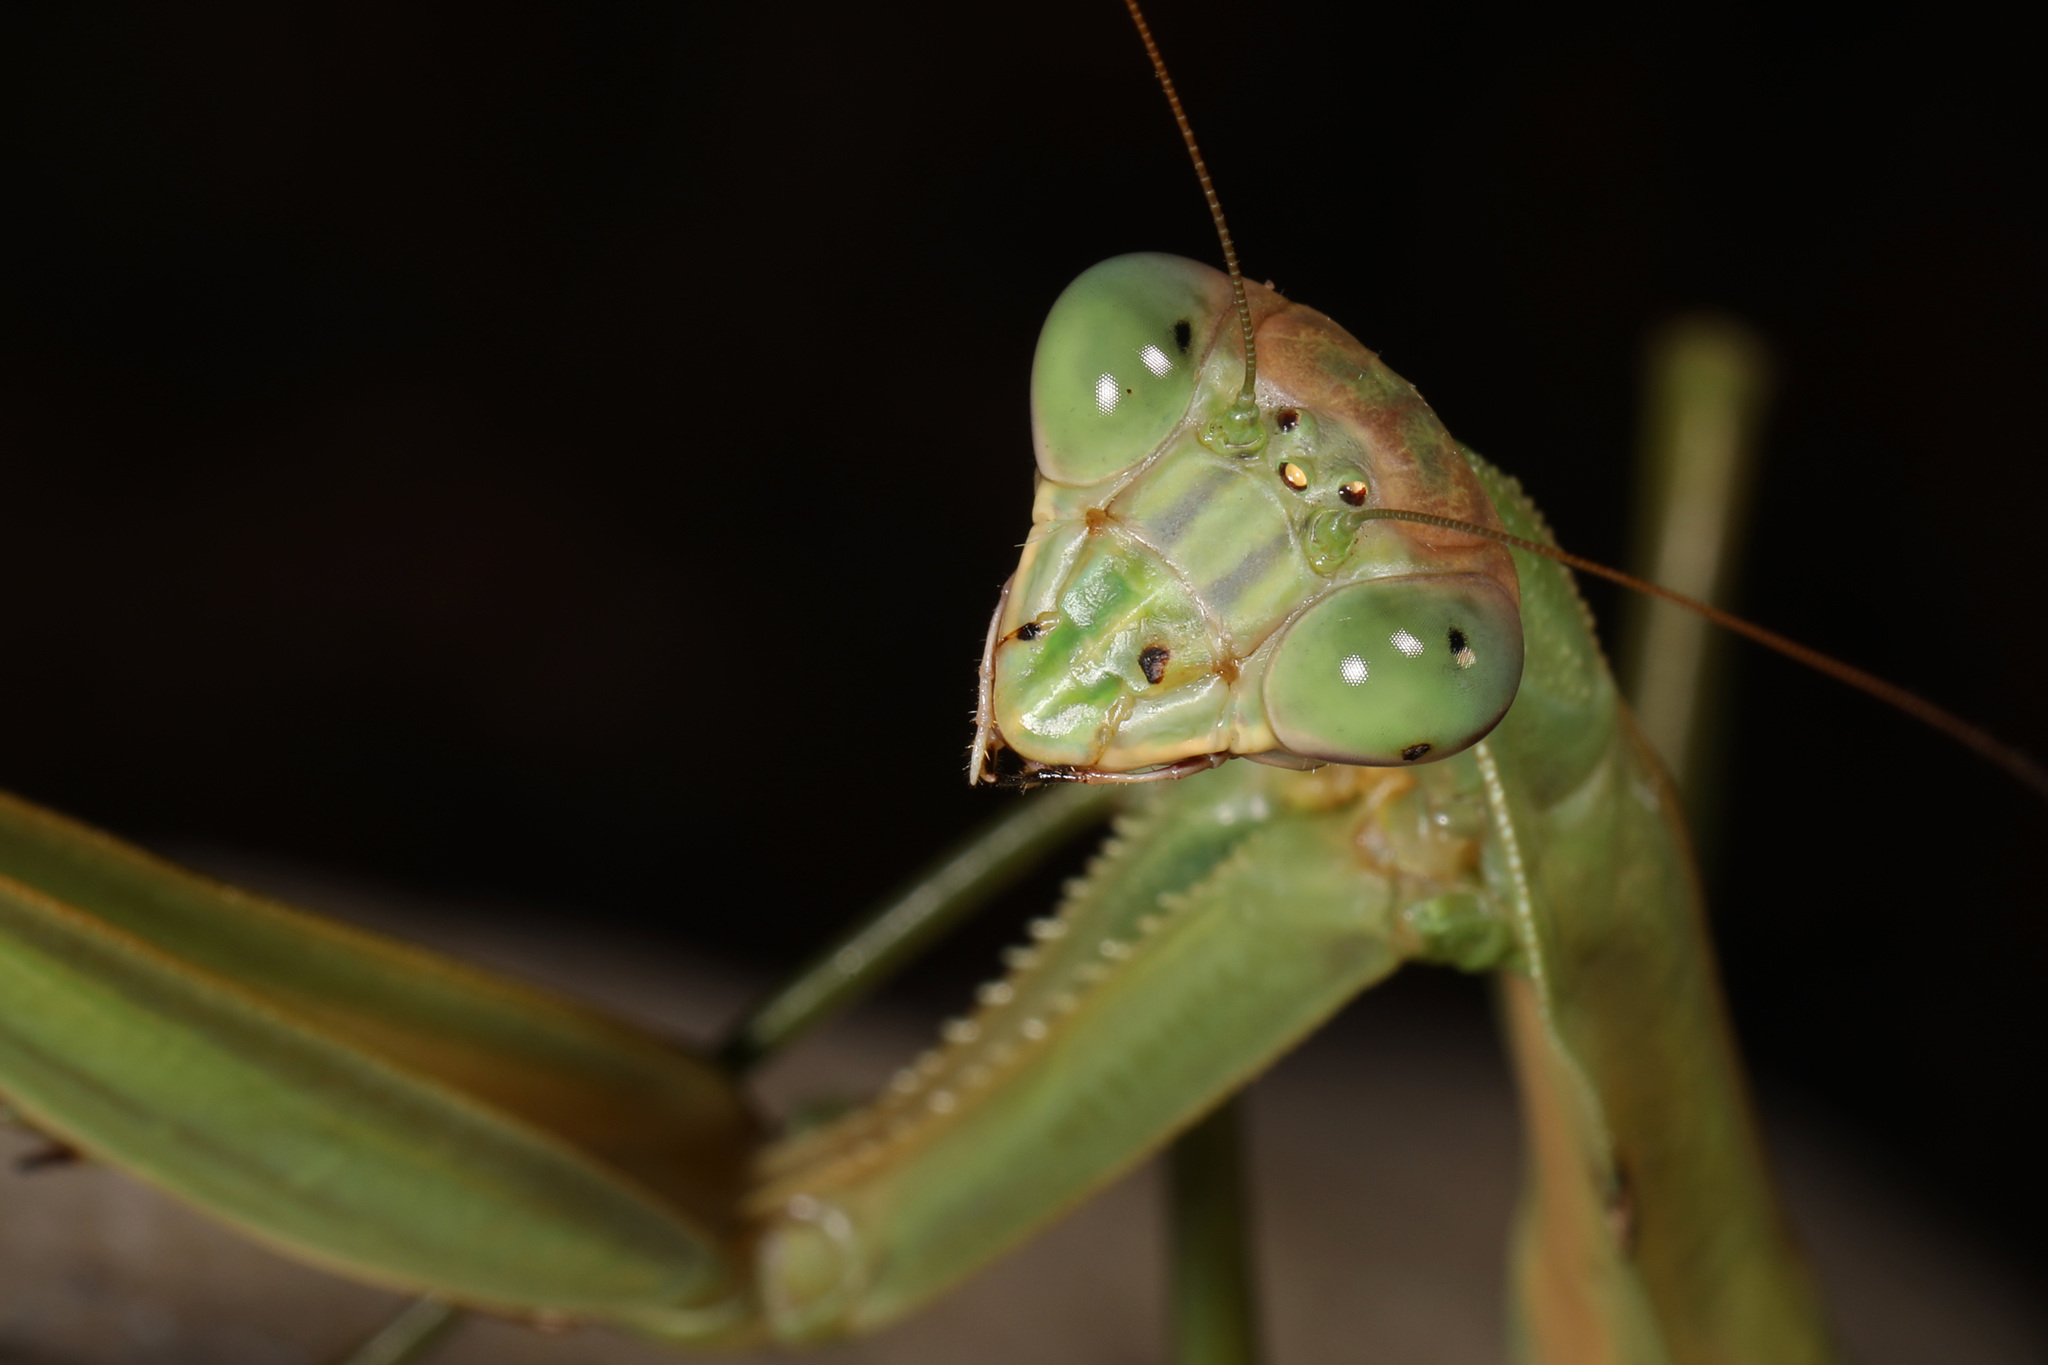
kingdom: Animalia
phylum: Arthropoda
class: Insecta
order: Mantodea
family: Mantidae
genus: Tenodera
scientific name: Tenodera sinensis
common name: Chinese mantis
